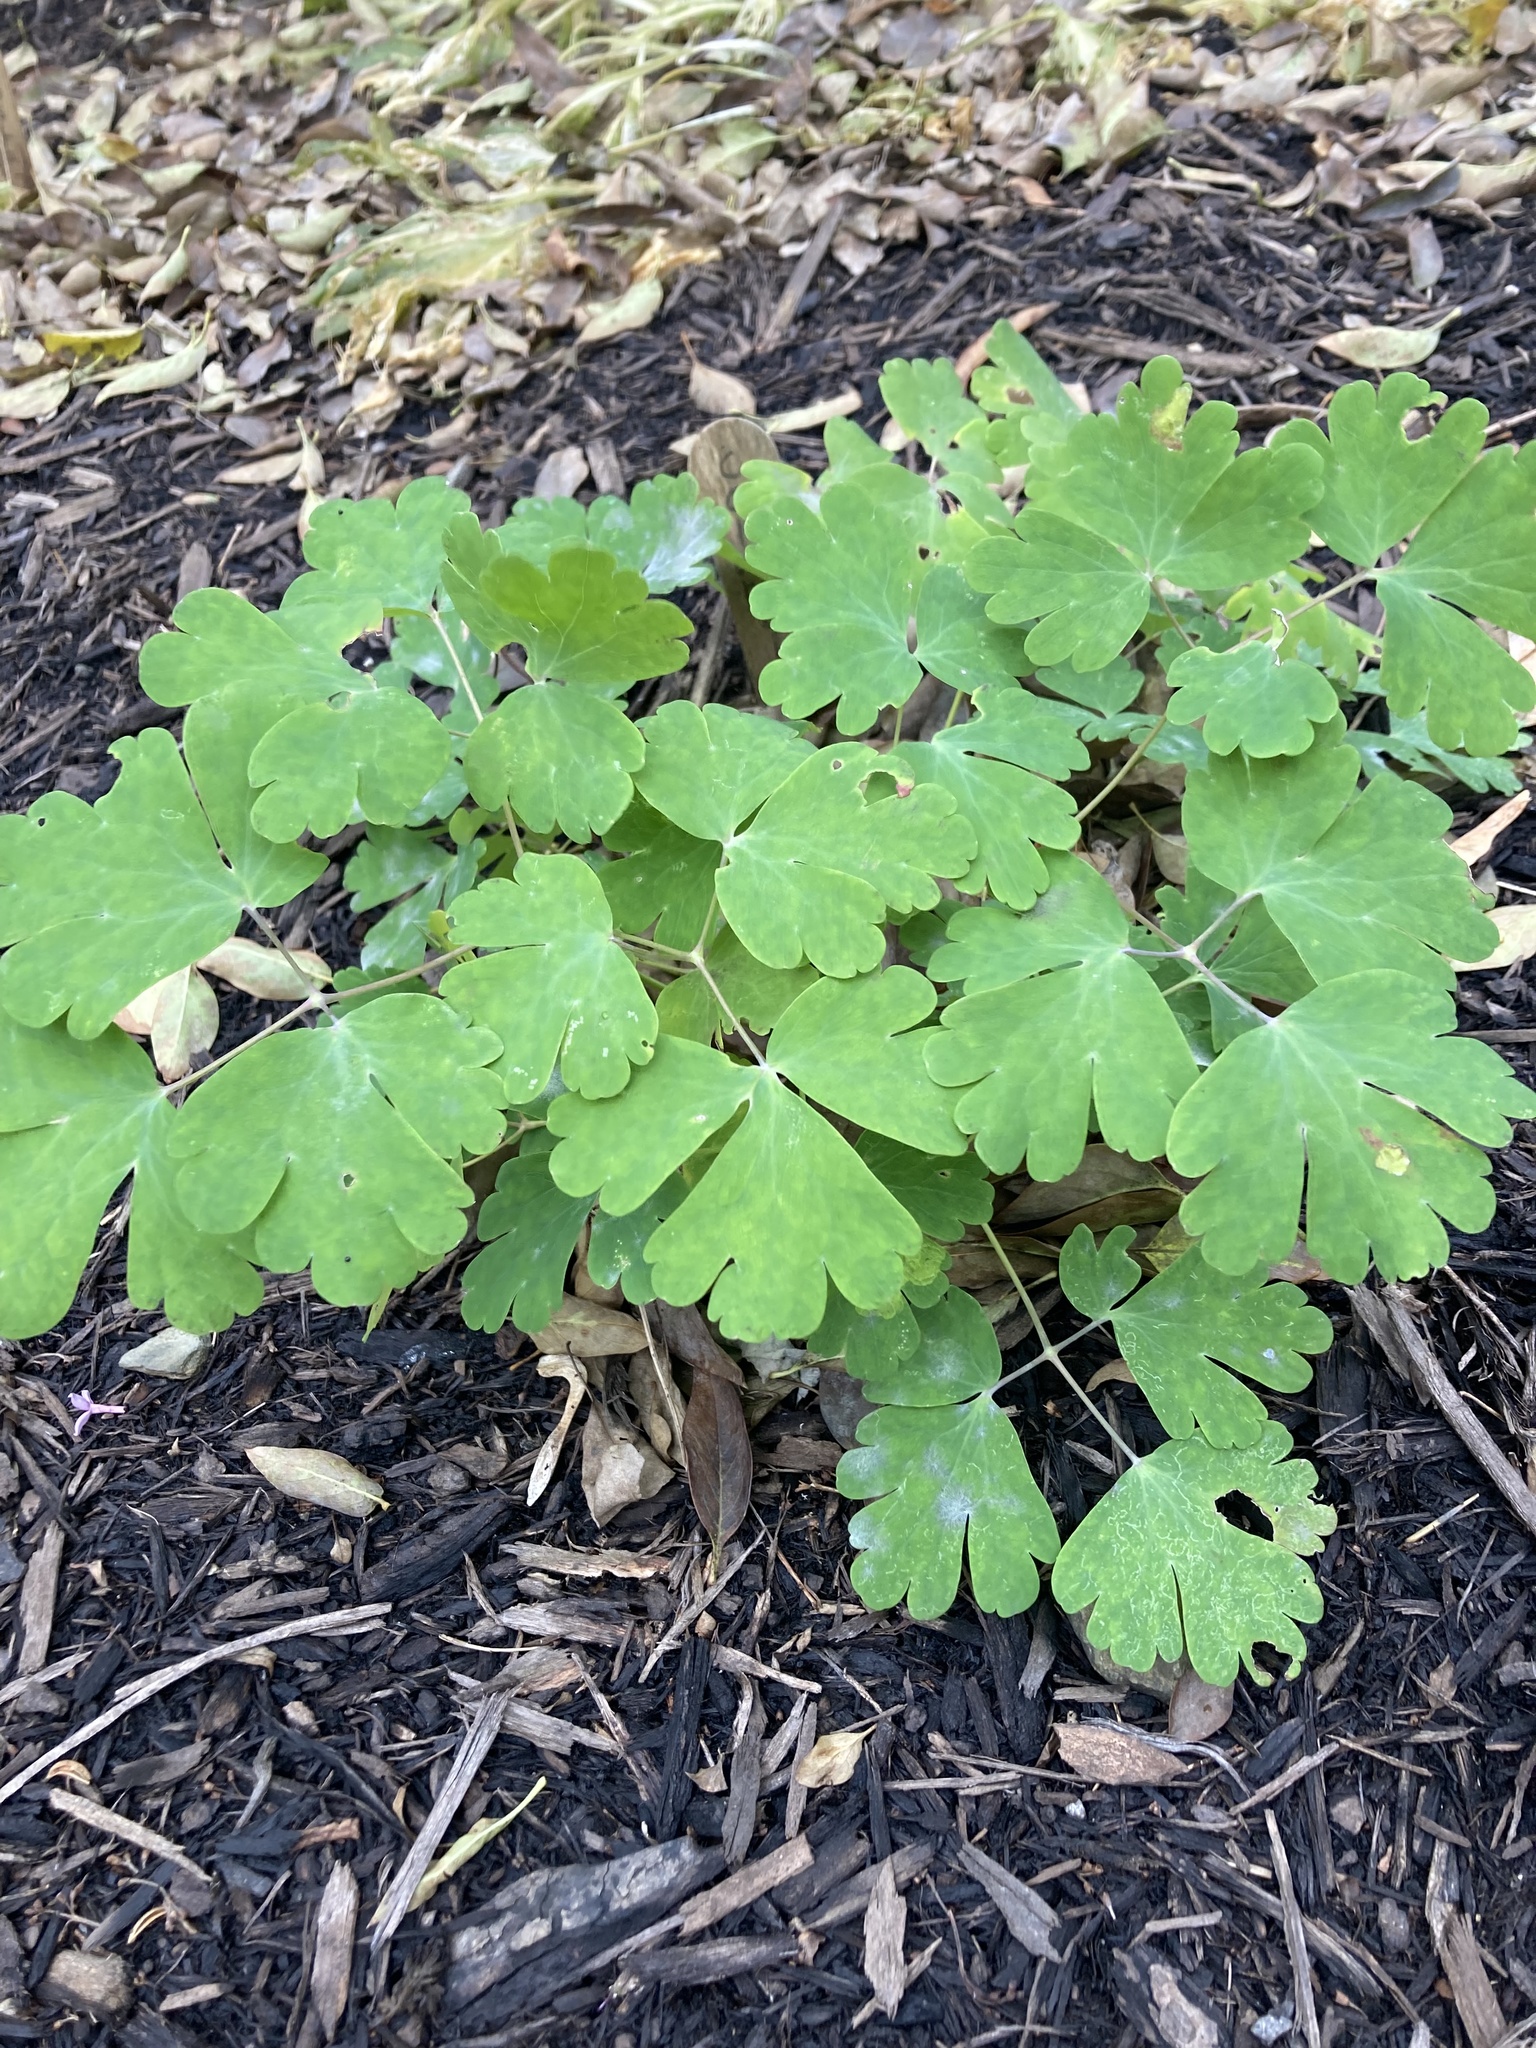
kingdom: Plantae
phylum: Tracheophyta
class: Magnoliopsida
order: Ranunculales
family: Ranunculaceae
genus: Aquilegia
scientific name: Aquilegia canadensis
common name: American columbine
